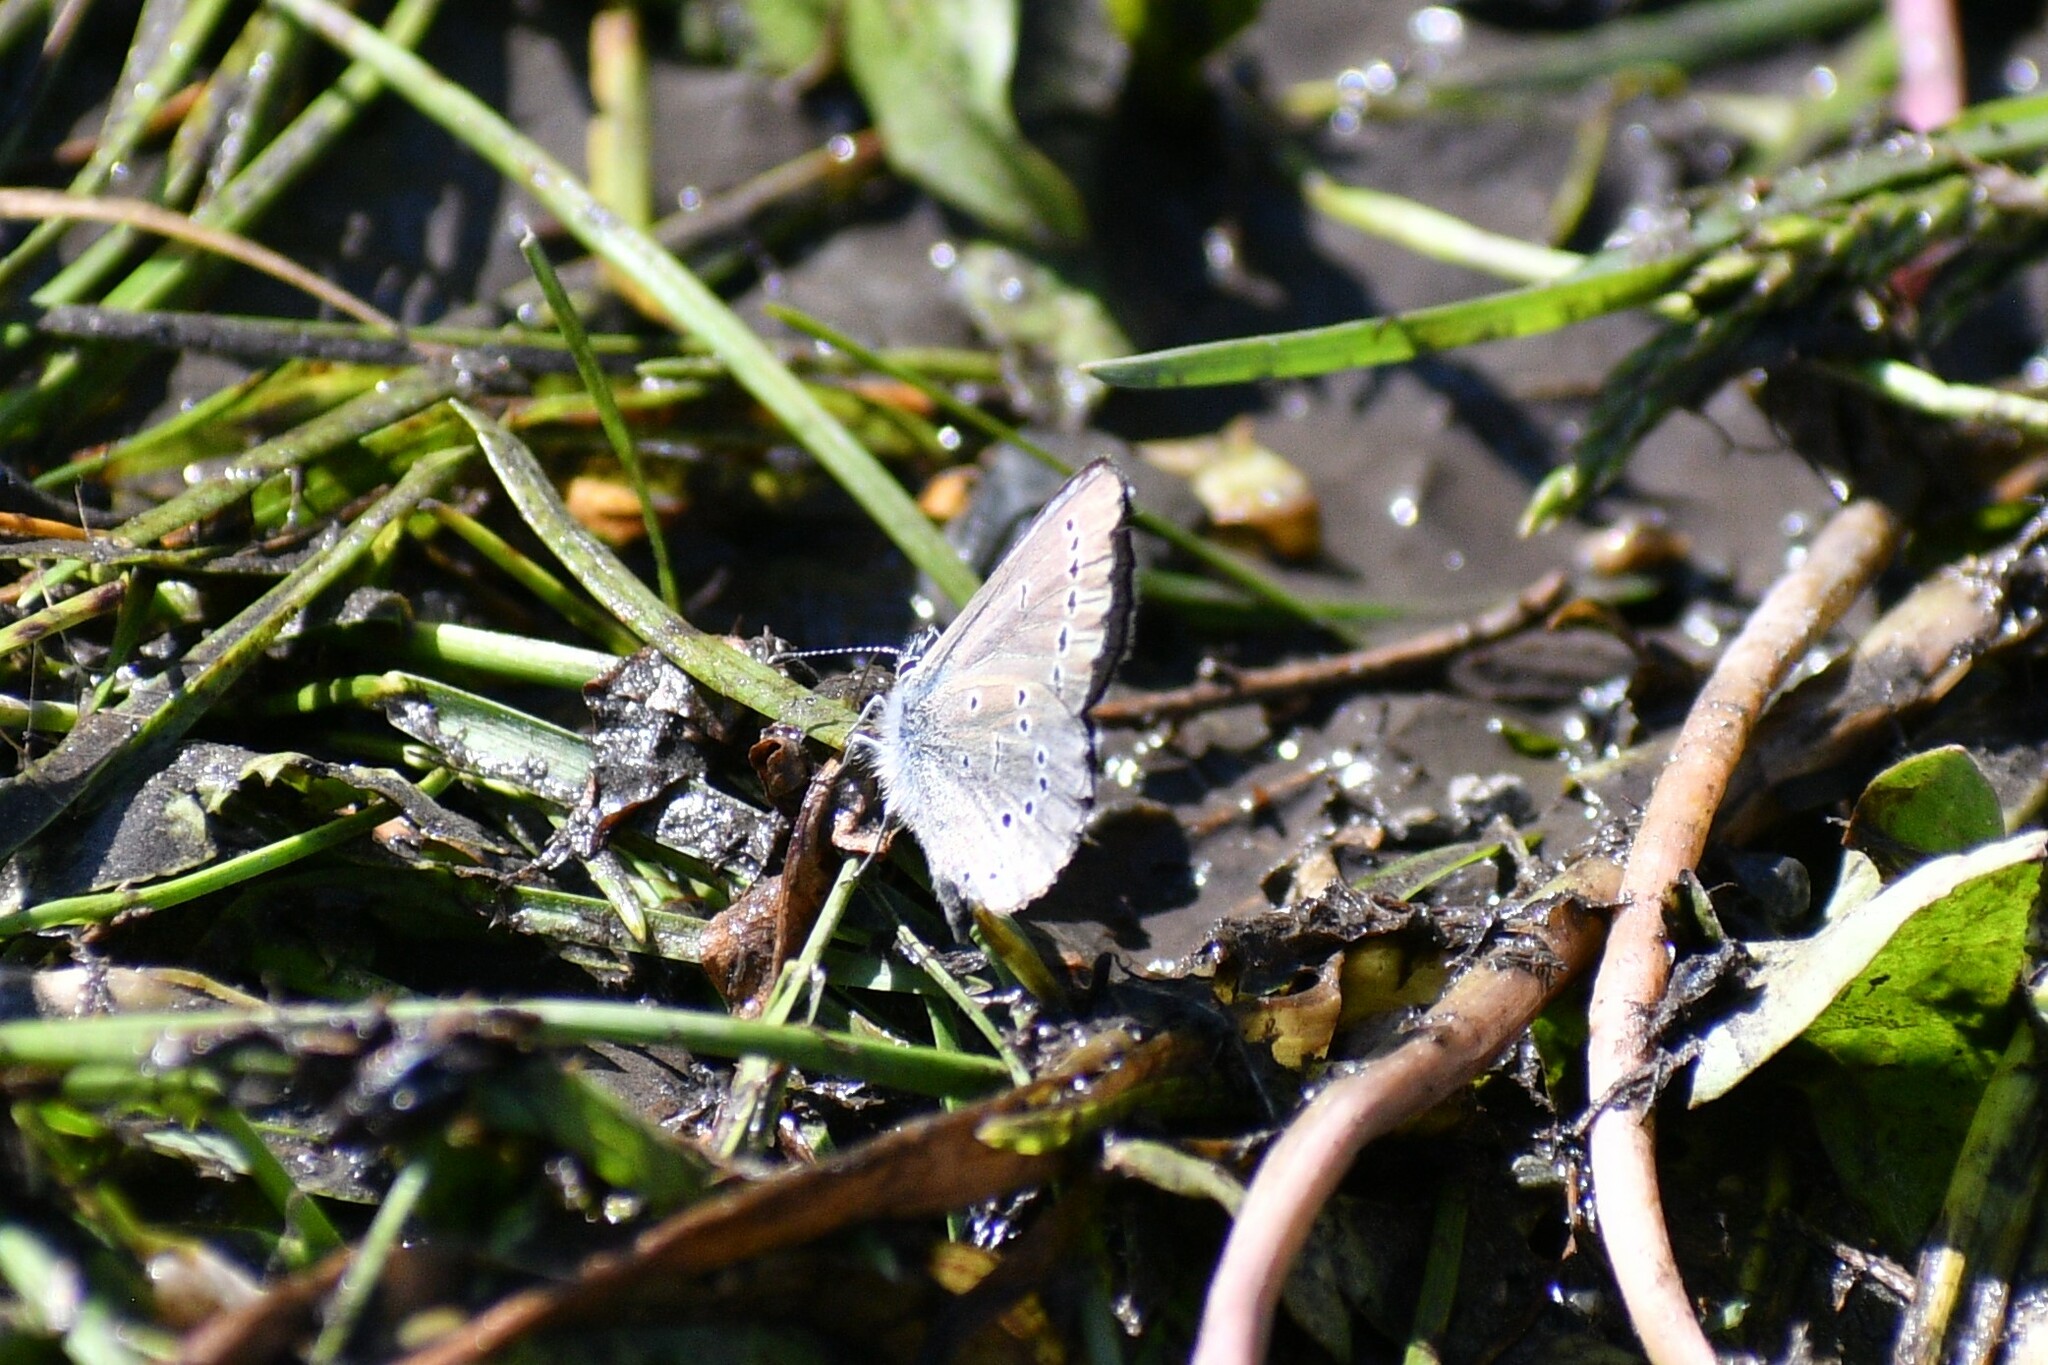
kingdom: Animalia
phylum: Arthropoda
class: Insecta
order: Lepidoptera
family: Lycaenidae
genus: Glaucopsyche
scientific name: Glaucopsyche lygdamus
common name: Silvery blue
